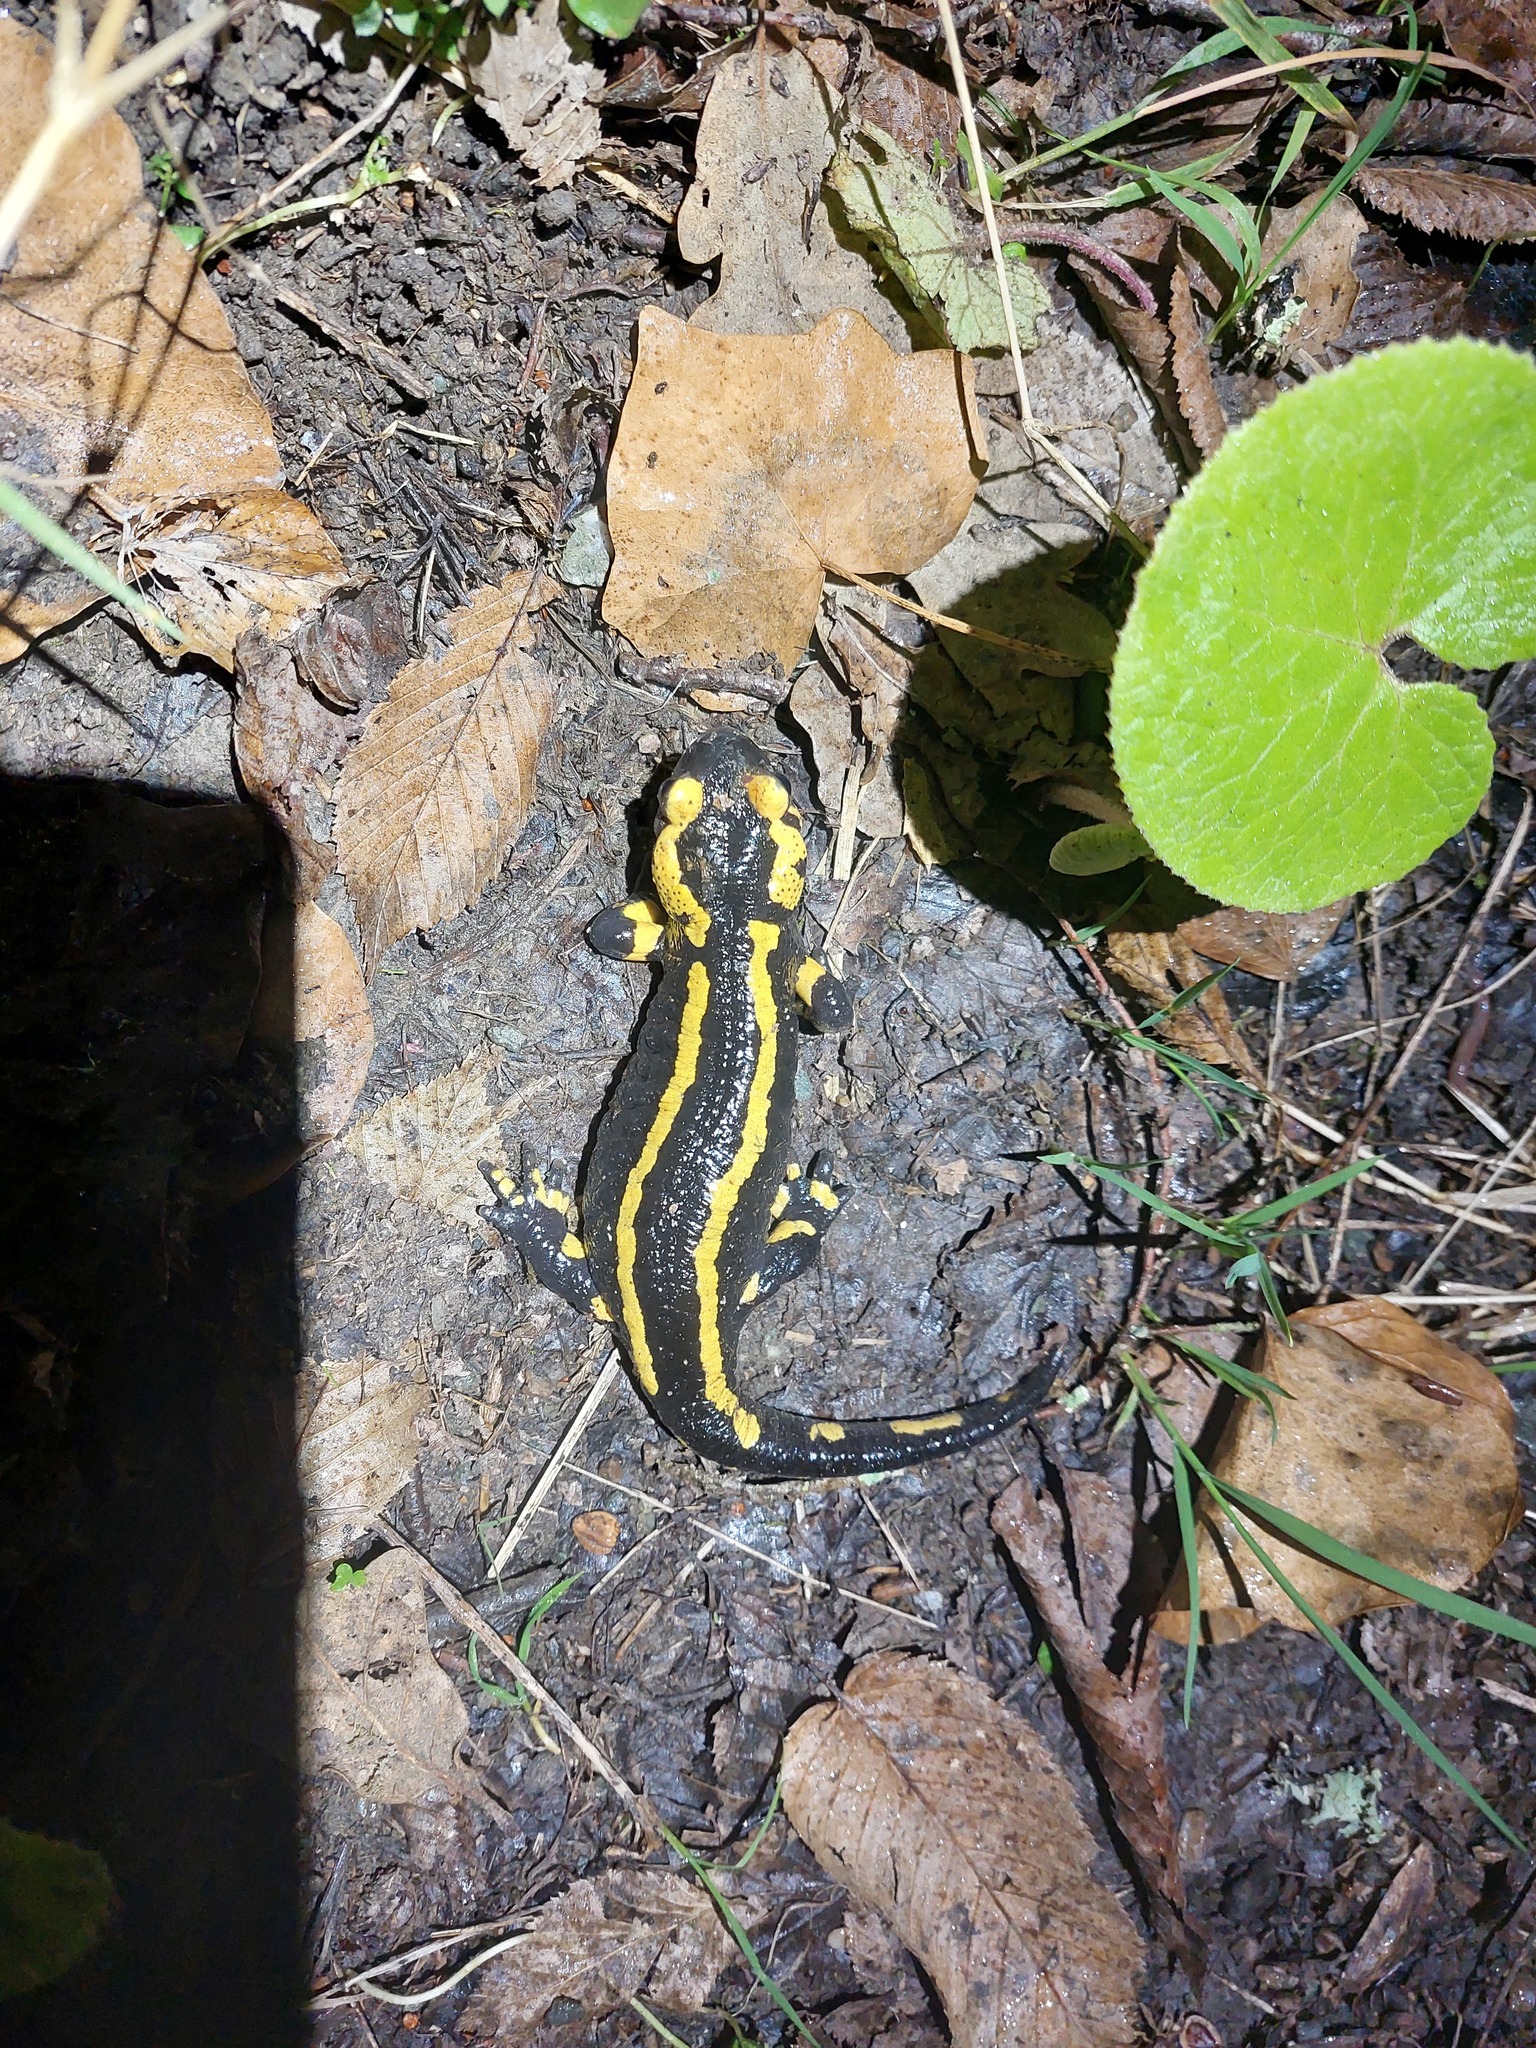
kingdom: Animalia
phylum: Chordata
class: Amphibia
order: Caudata
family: Salamandridae
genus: Salamandra
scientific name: Salamandra salamandra
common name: Fire salamander
